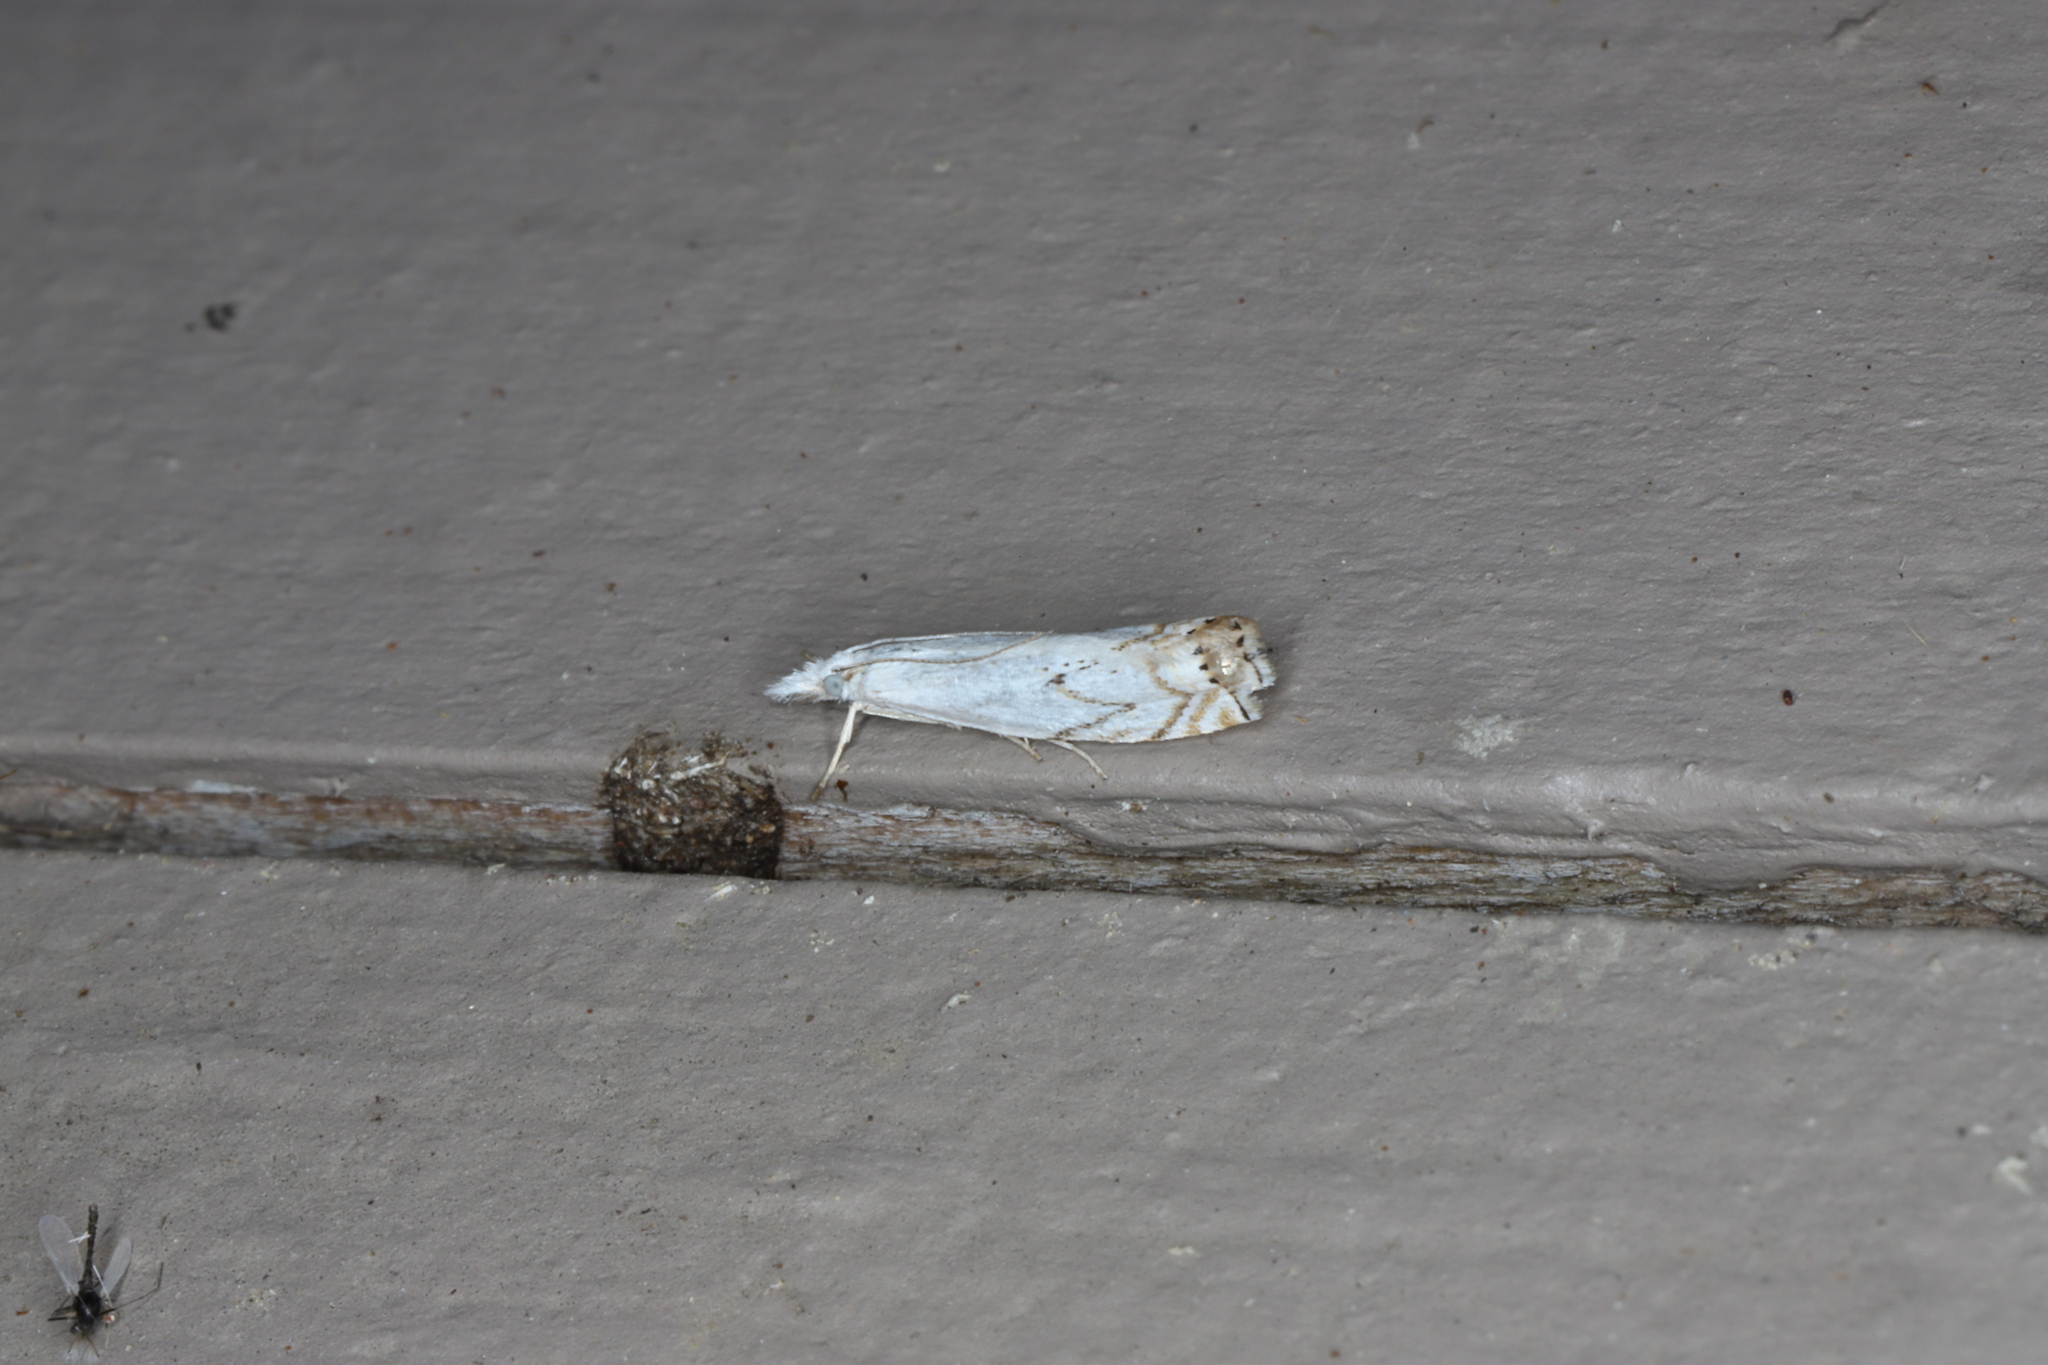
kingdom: Animalia
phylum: Arthropoda
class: Insecta
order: Lepidoptera
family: Crambidae
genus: Crambus
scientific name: Crambus albellus
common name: Small white grass-veneer
